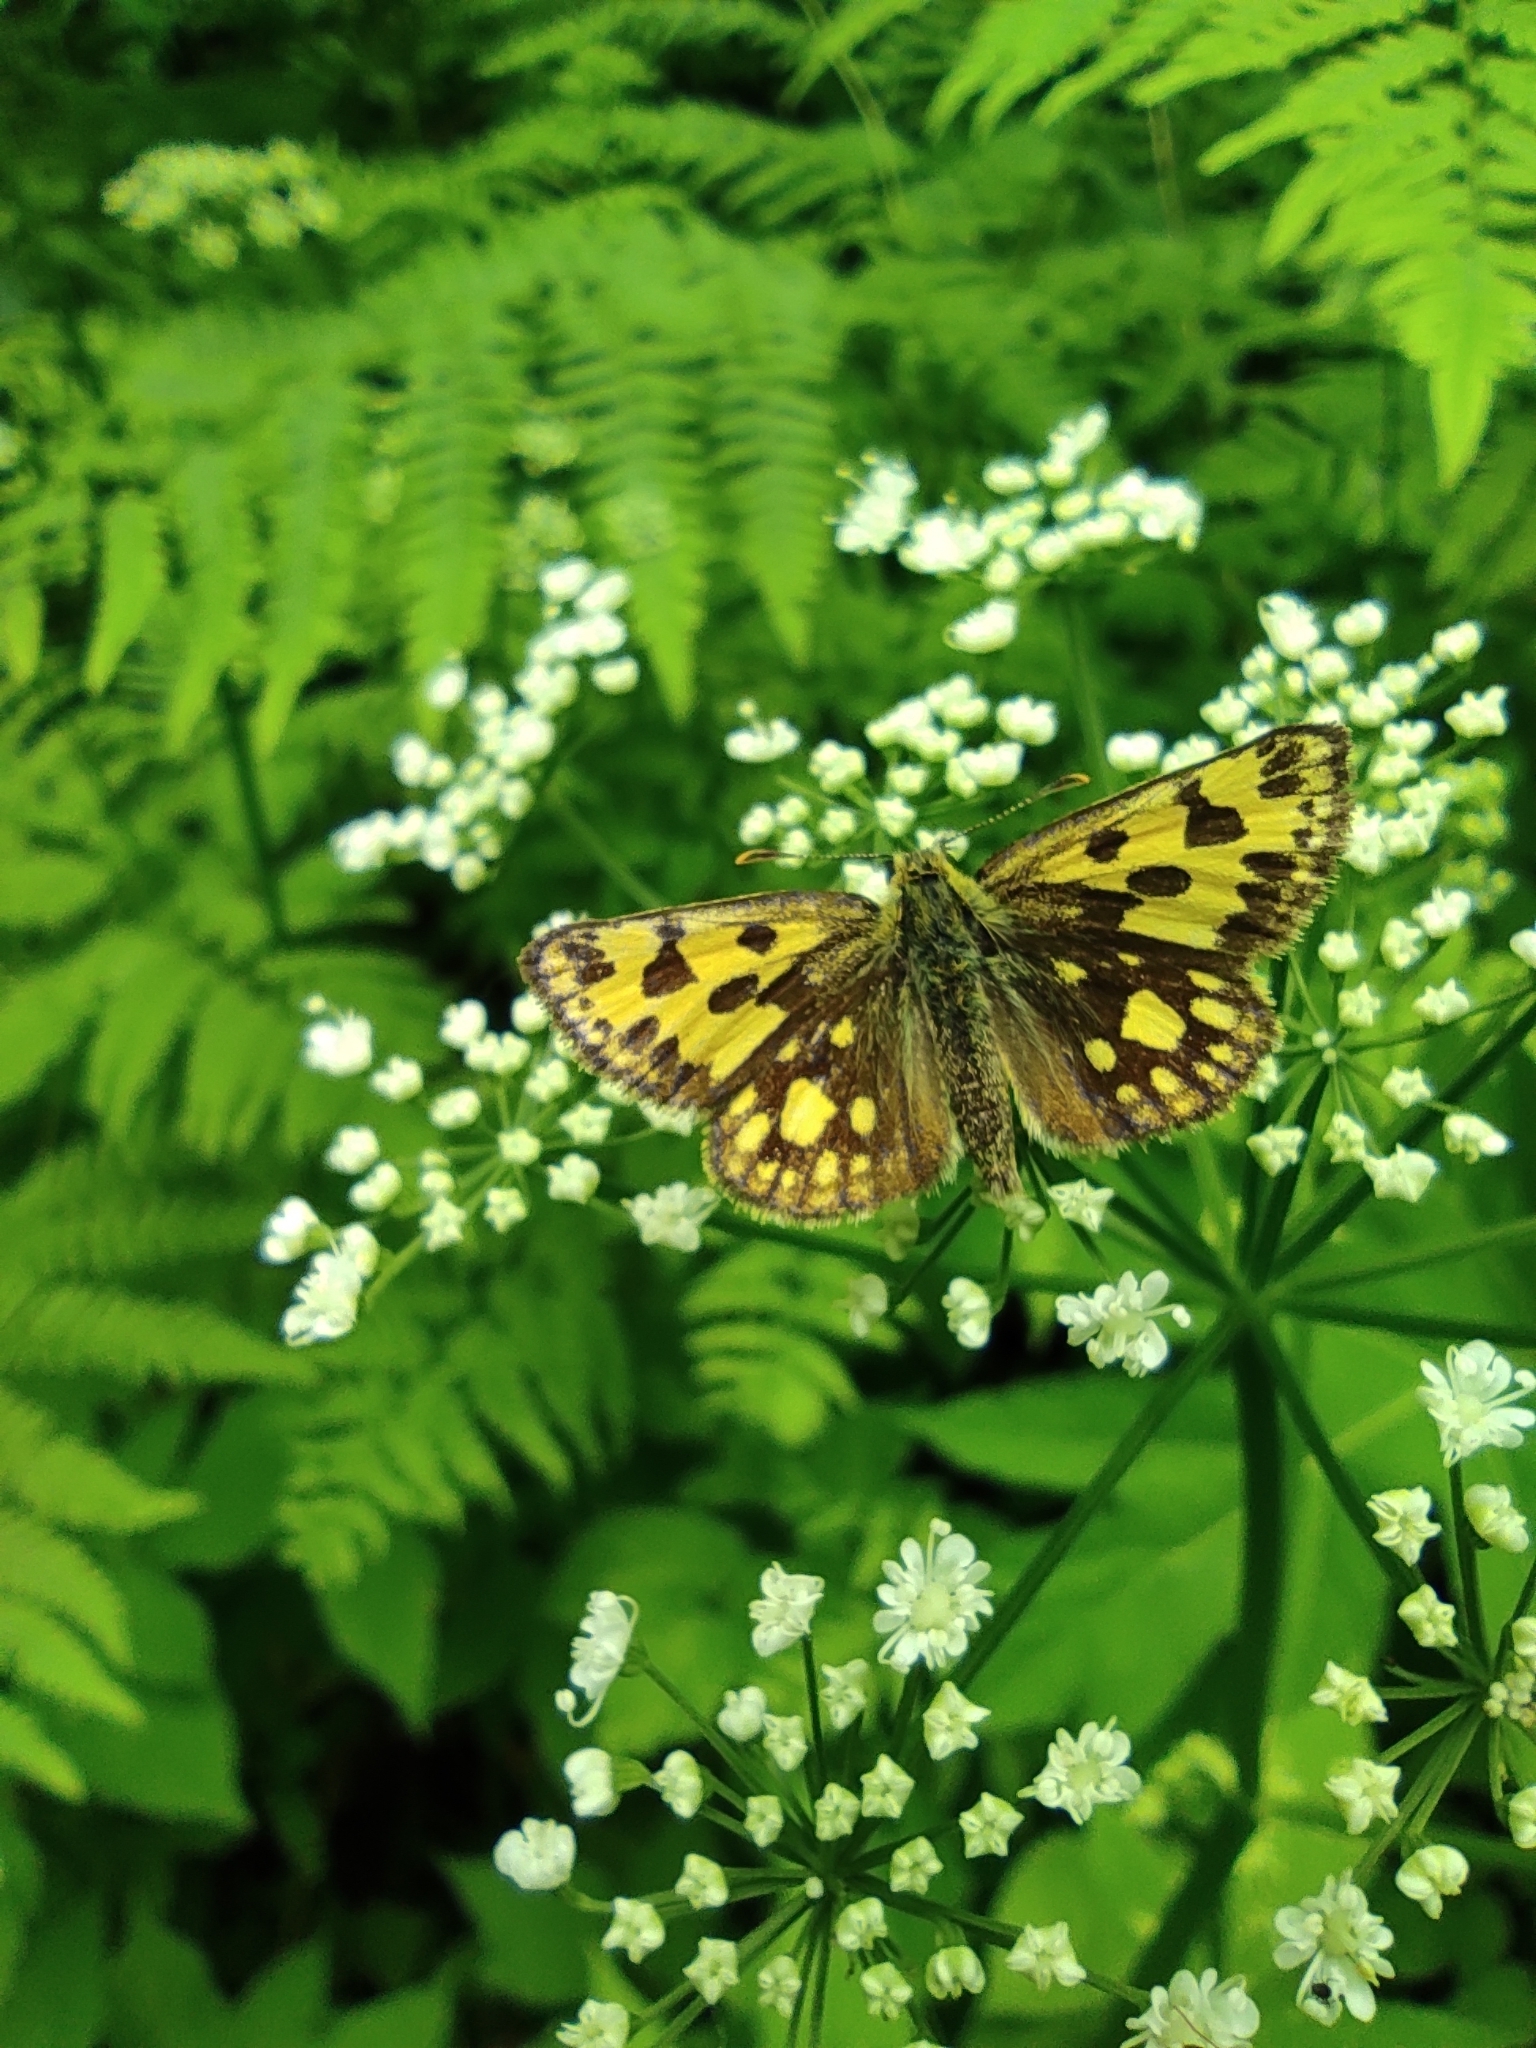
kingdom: Animalia
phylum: Arthropoda
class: Insecta
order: Lepidoptera
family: Hesperiidae
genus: Carterocephalus
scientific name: Carterocephalus silvicola
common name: Northern chequered skipper
